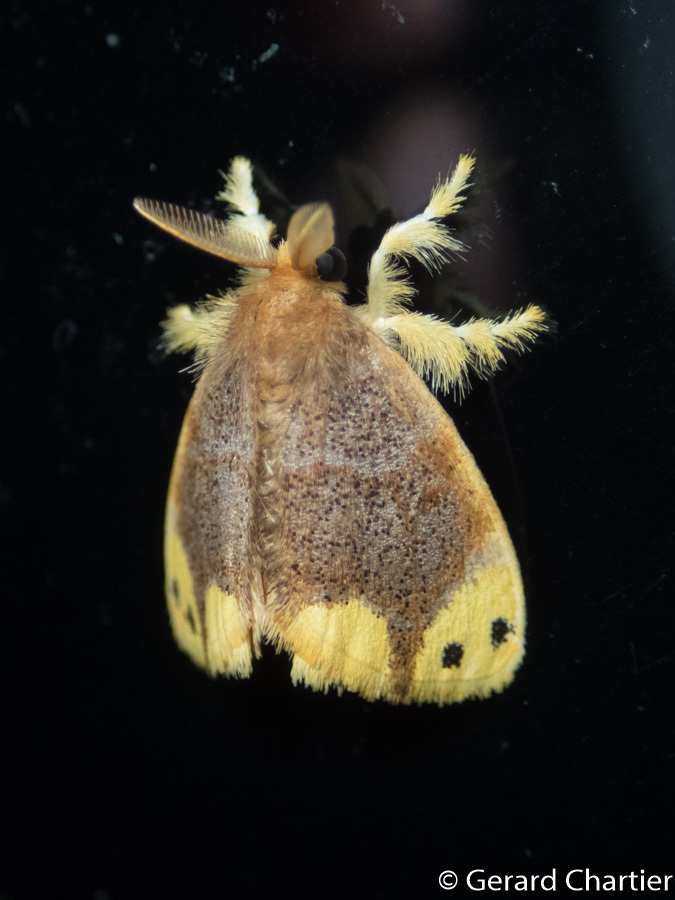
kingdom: Animalia
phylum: Arthropoda
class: Insecta
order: Lepidoptera
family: Erebidae
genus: Arna
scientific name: Arna bipunctapex
